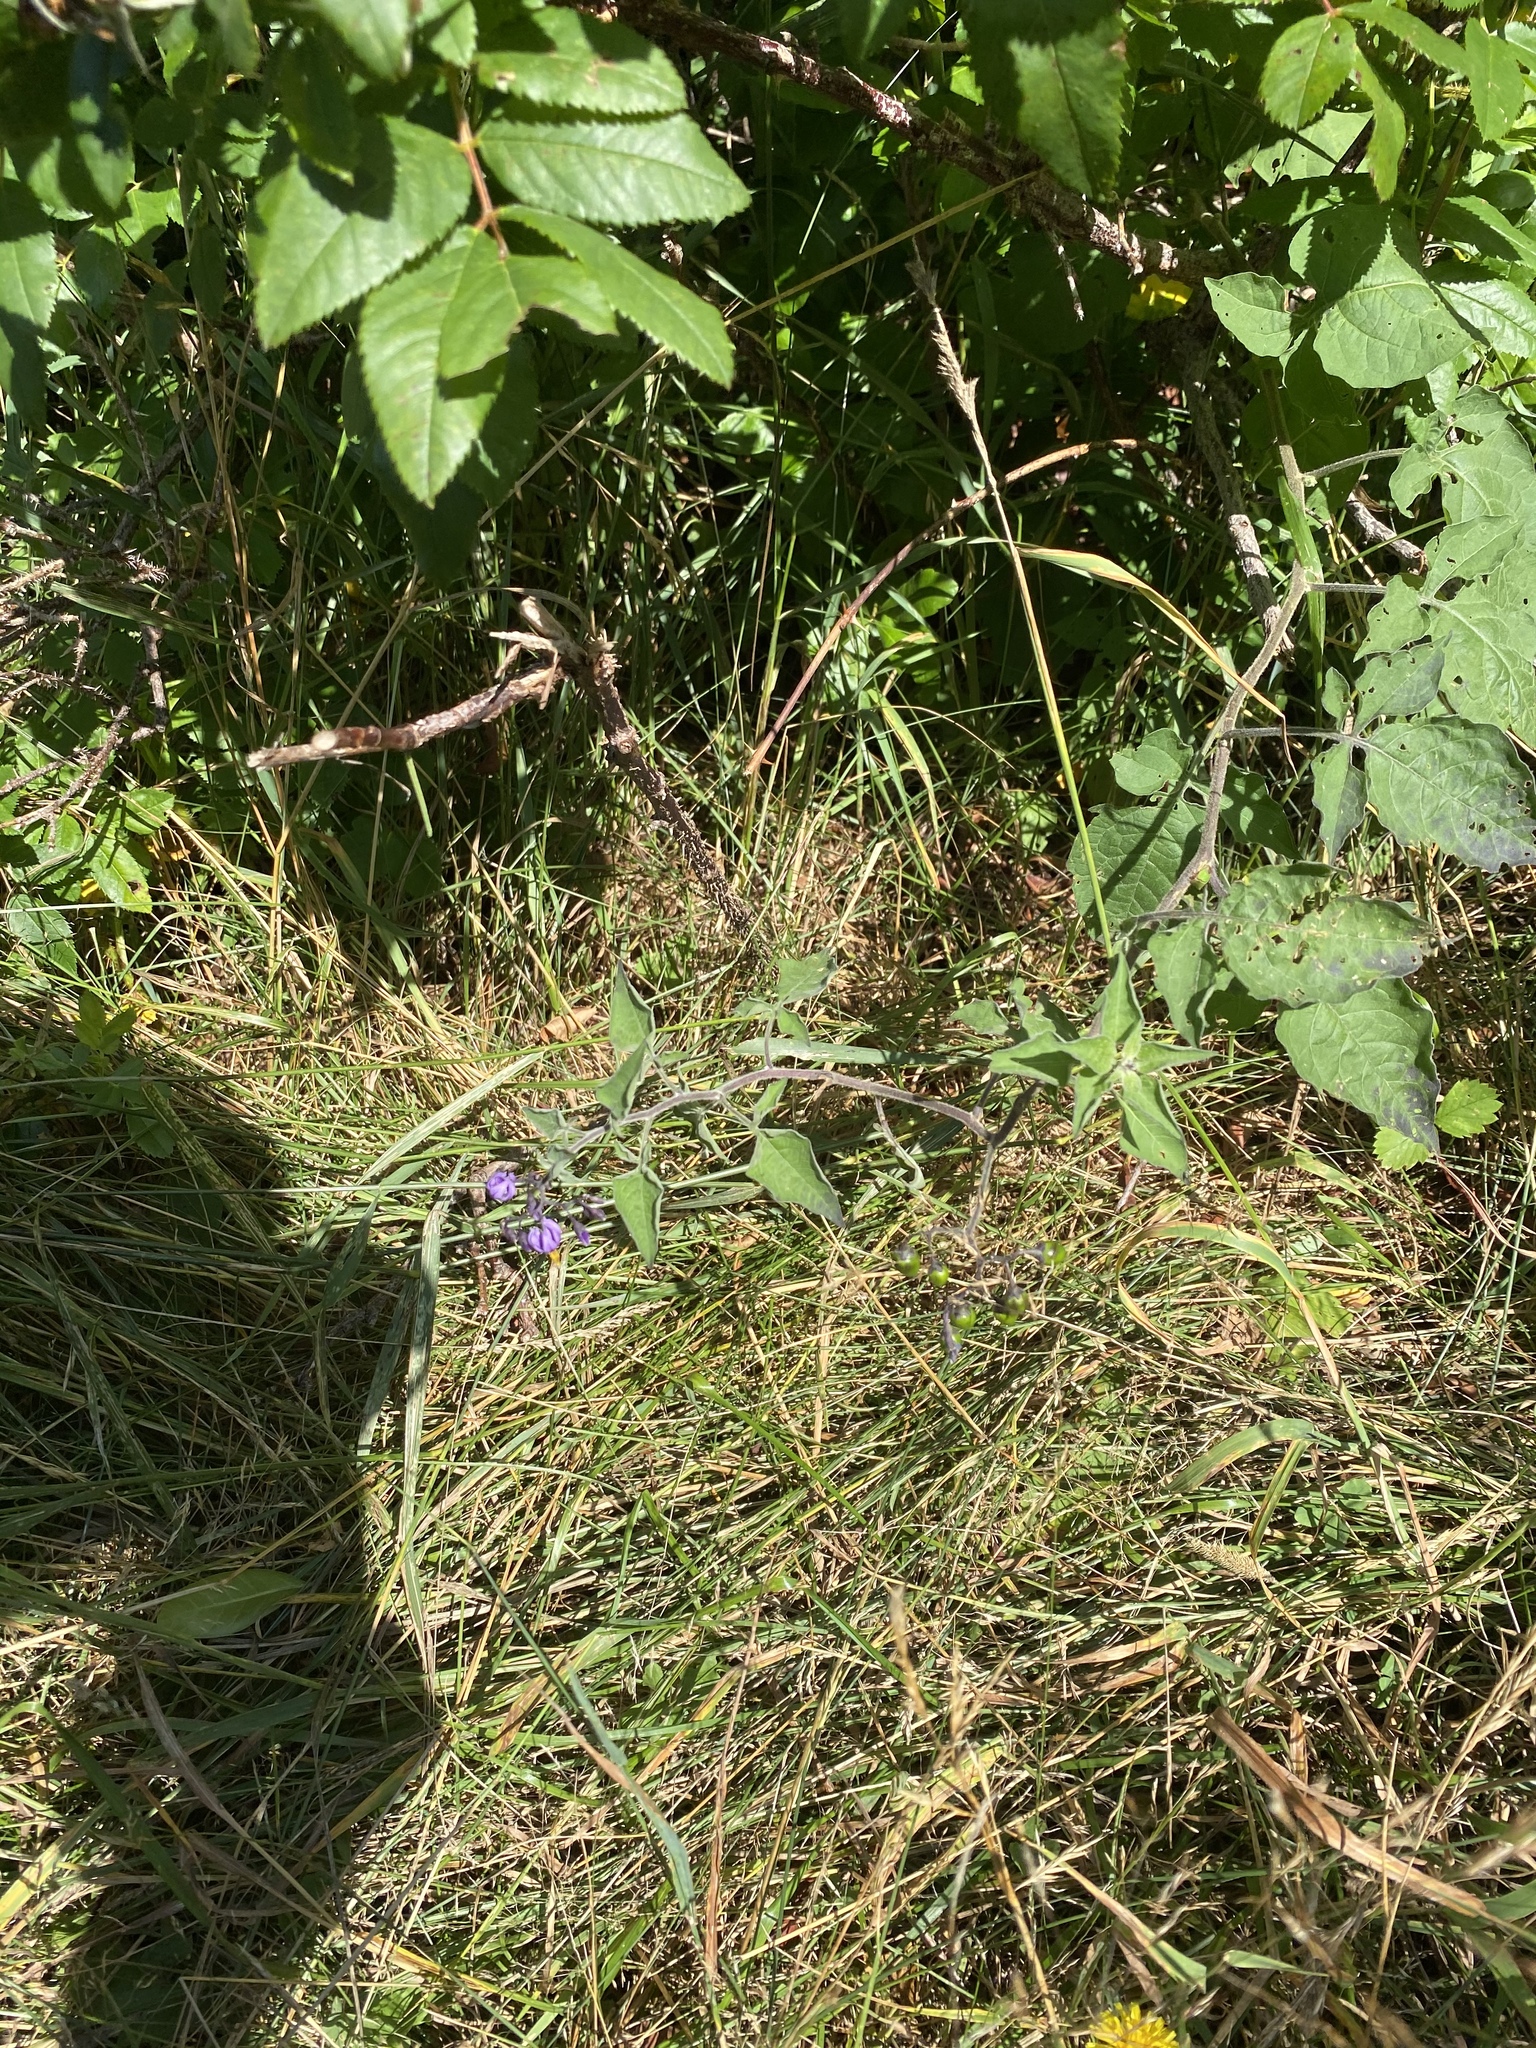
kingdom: Plantae
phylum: Tracheophyta
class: Magnoliopsida
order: Solanales
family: Solanaceae
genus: Solanum
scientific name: Solanum dulcamara
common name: Climbing nightshade
